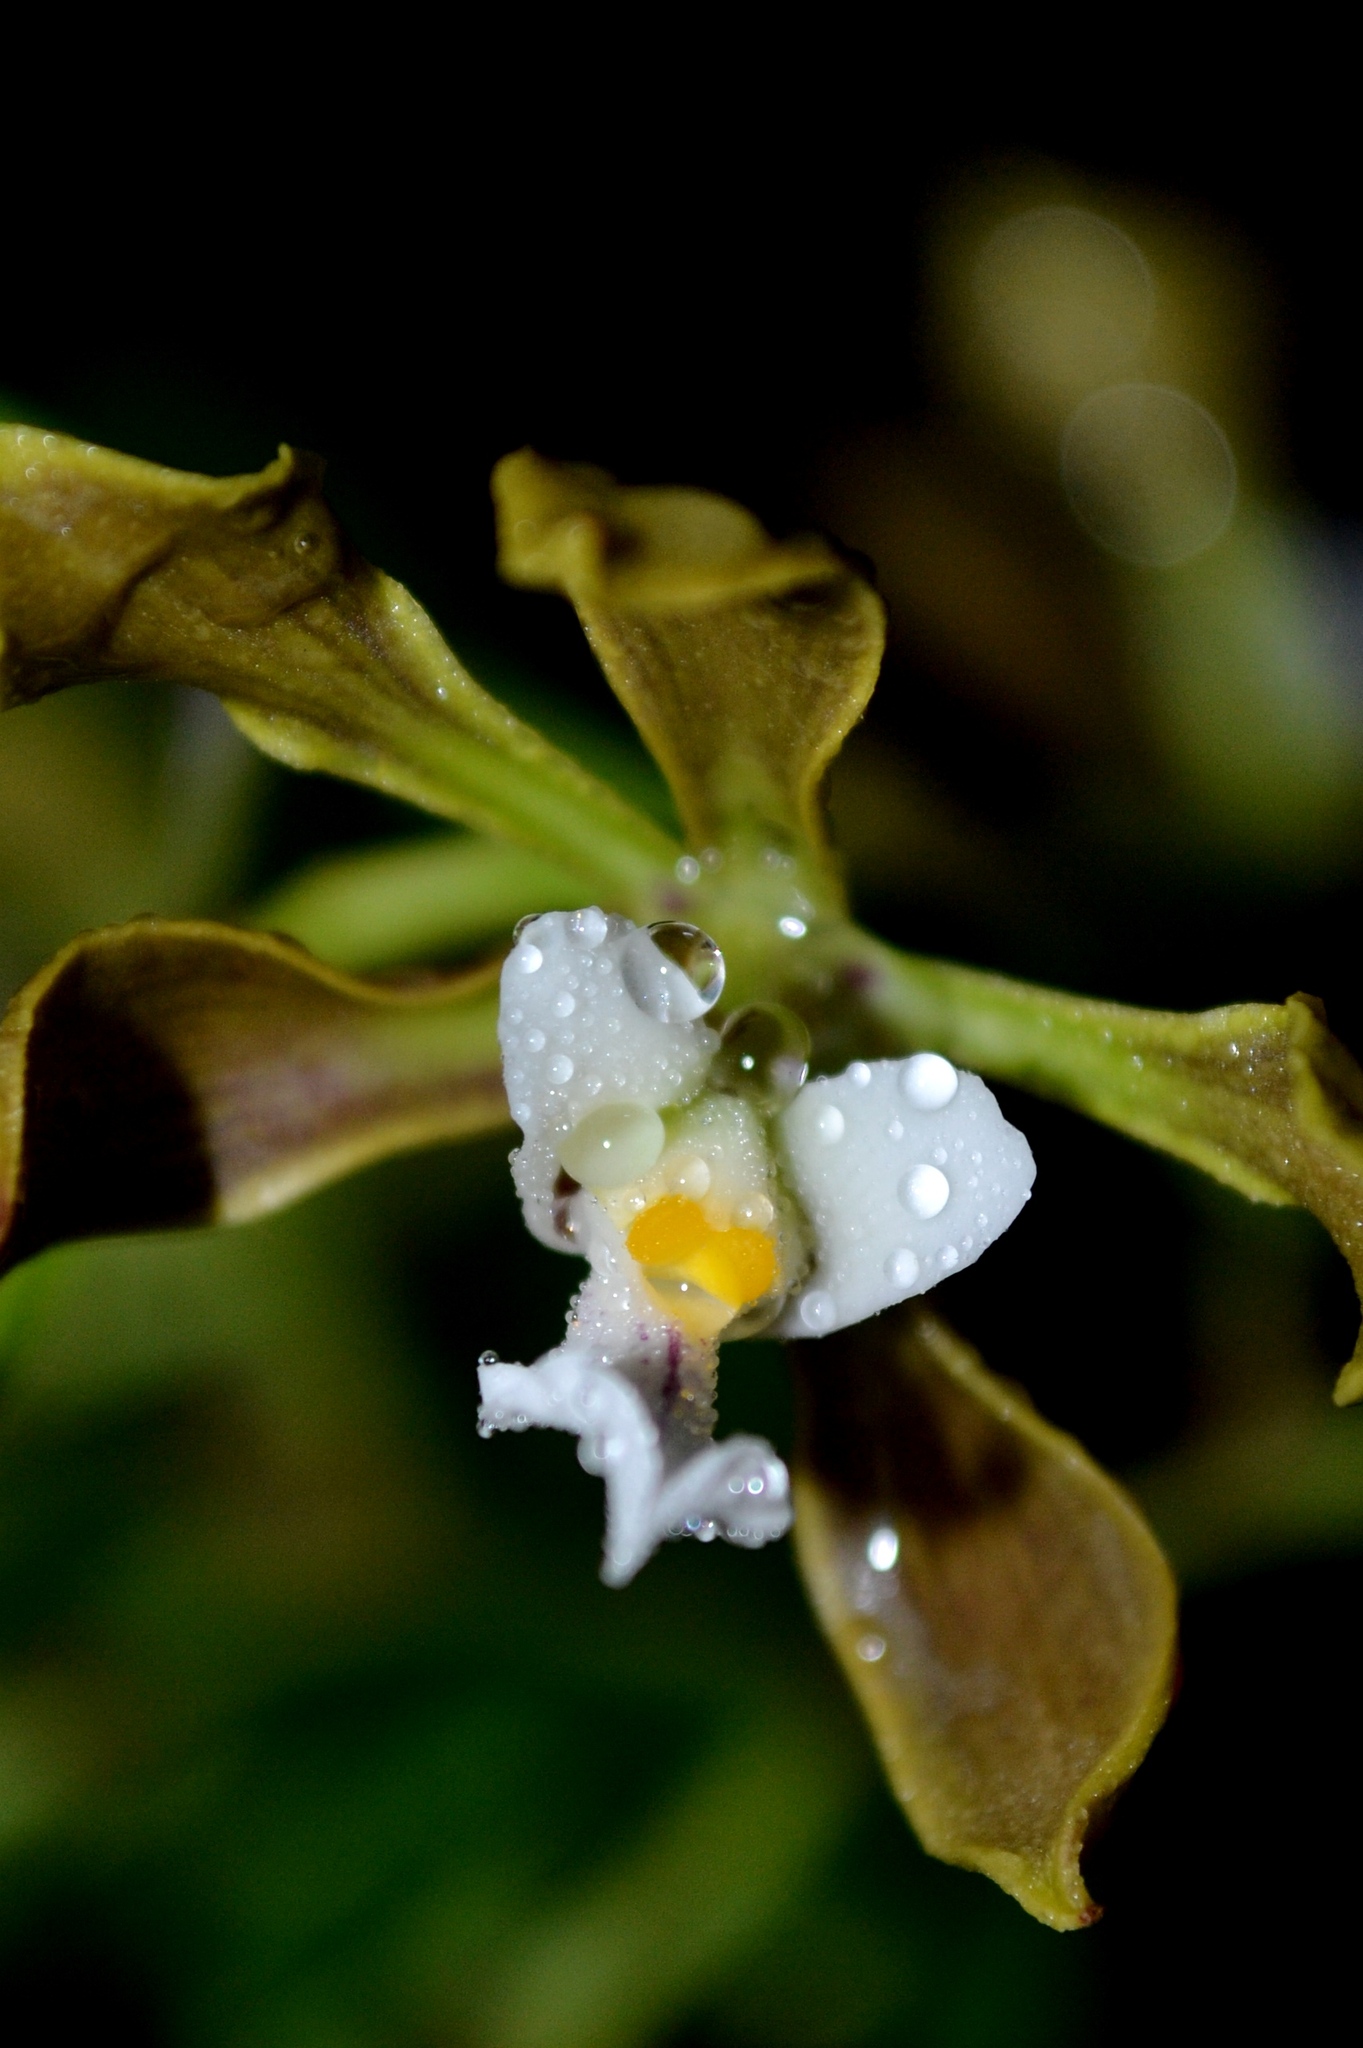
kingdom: Plantae
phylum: Tracheophyta
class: Liliopsida
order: Asparagales
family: Orchidaceae
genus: Encyclia
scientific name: Encyclia selligera
